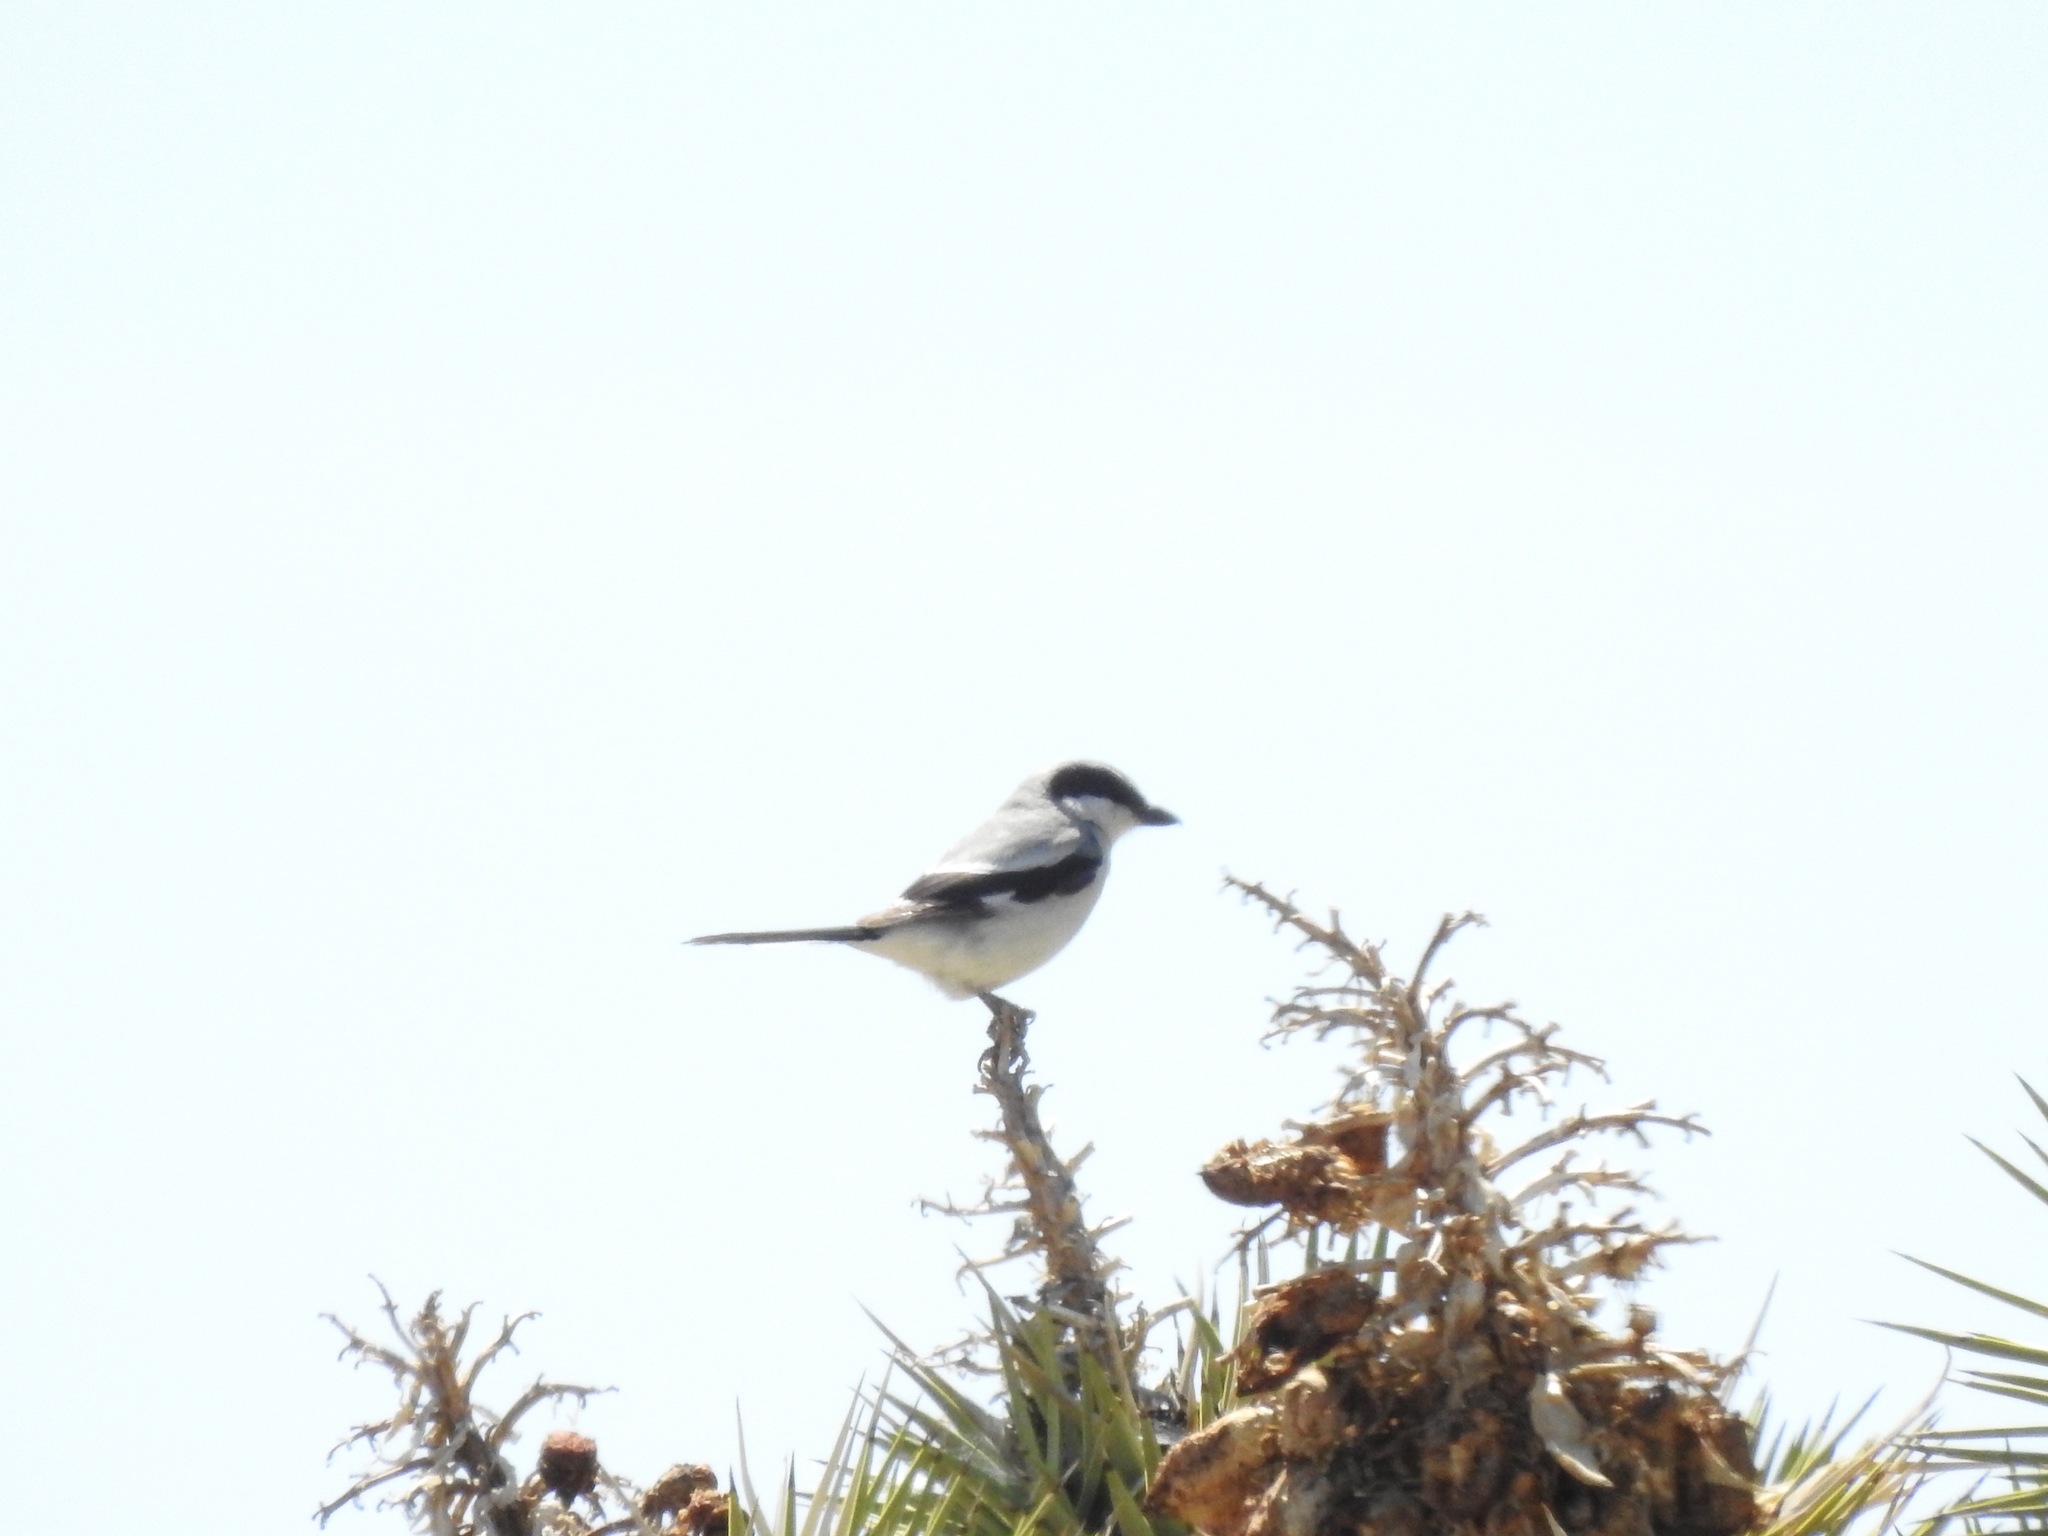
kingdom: Animalia
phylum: Chordata
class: Aves
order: Passeriformes
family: Laniidae
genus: Lanius
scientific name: Lanius ludovicianus
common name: Loggerhead shrike
